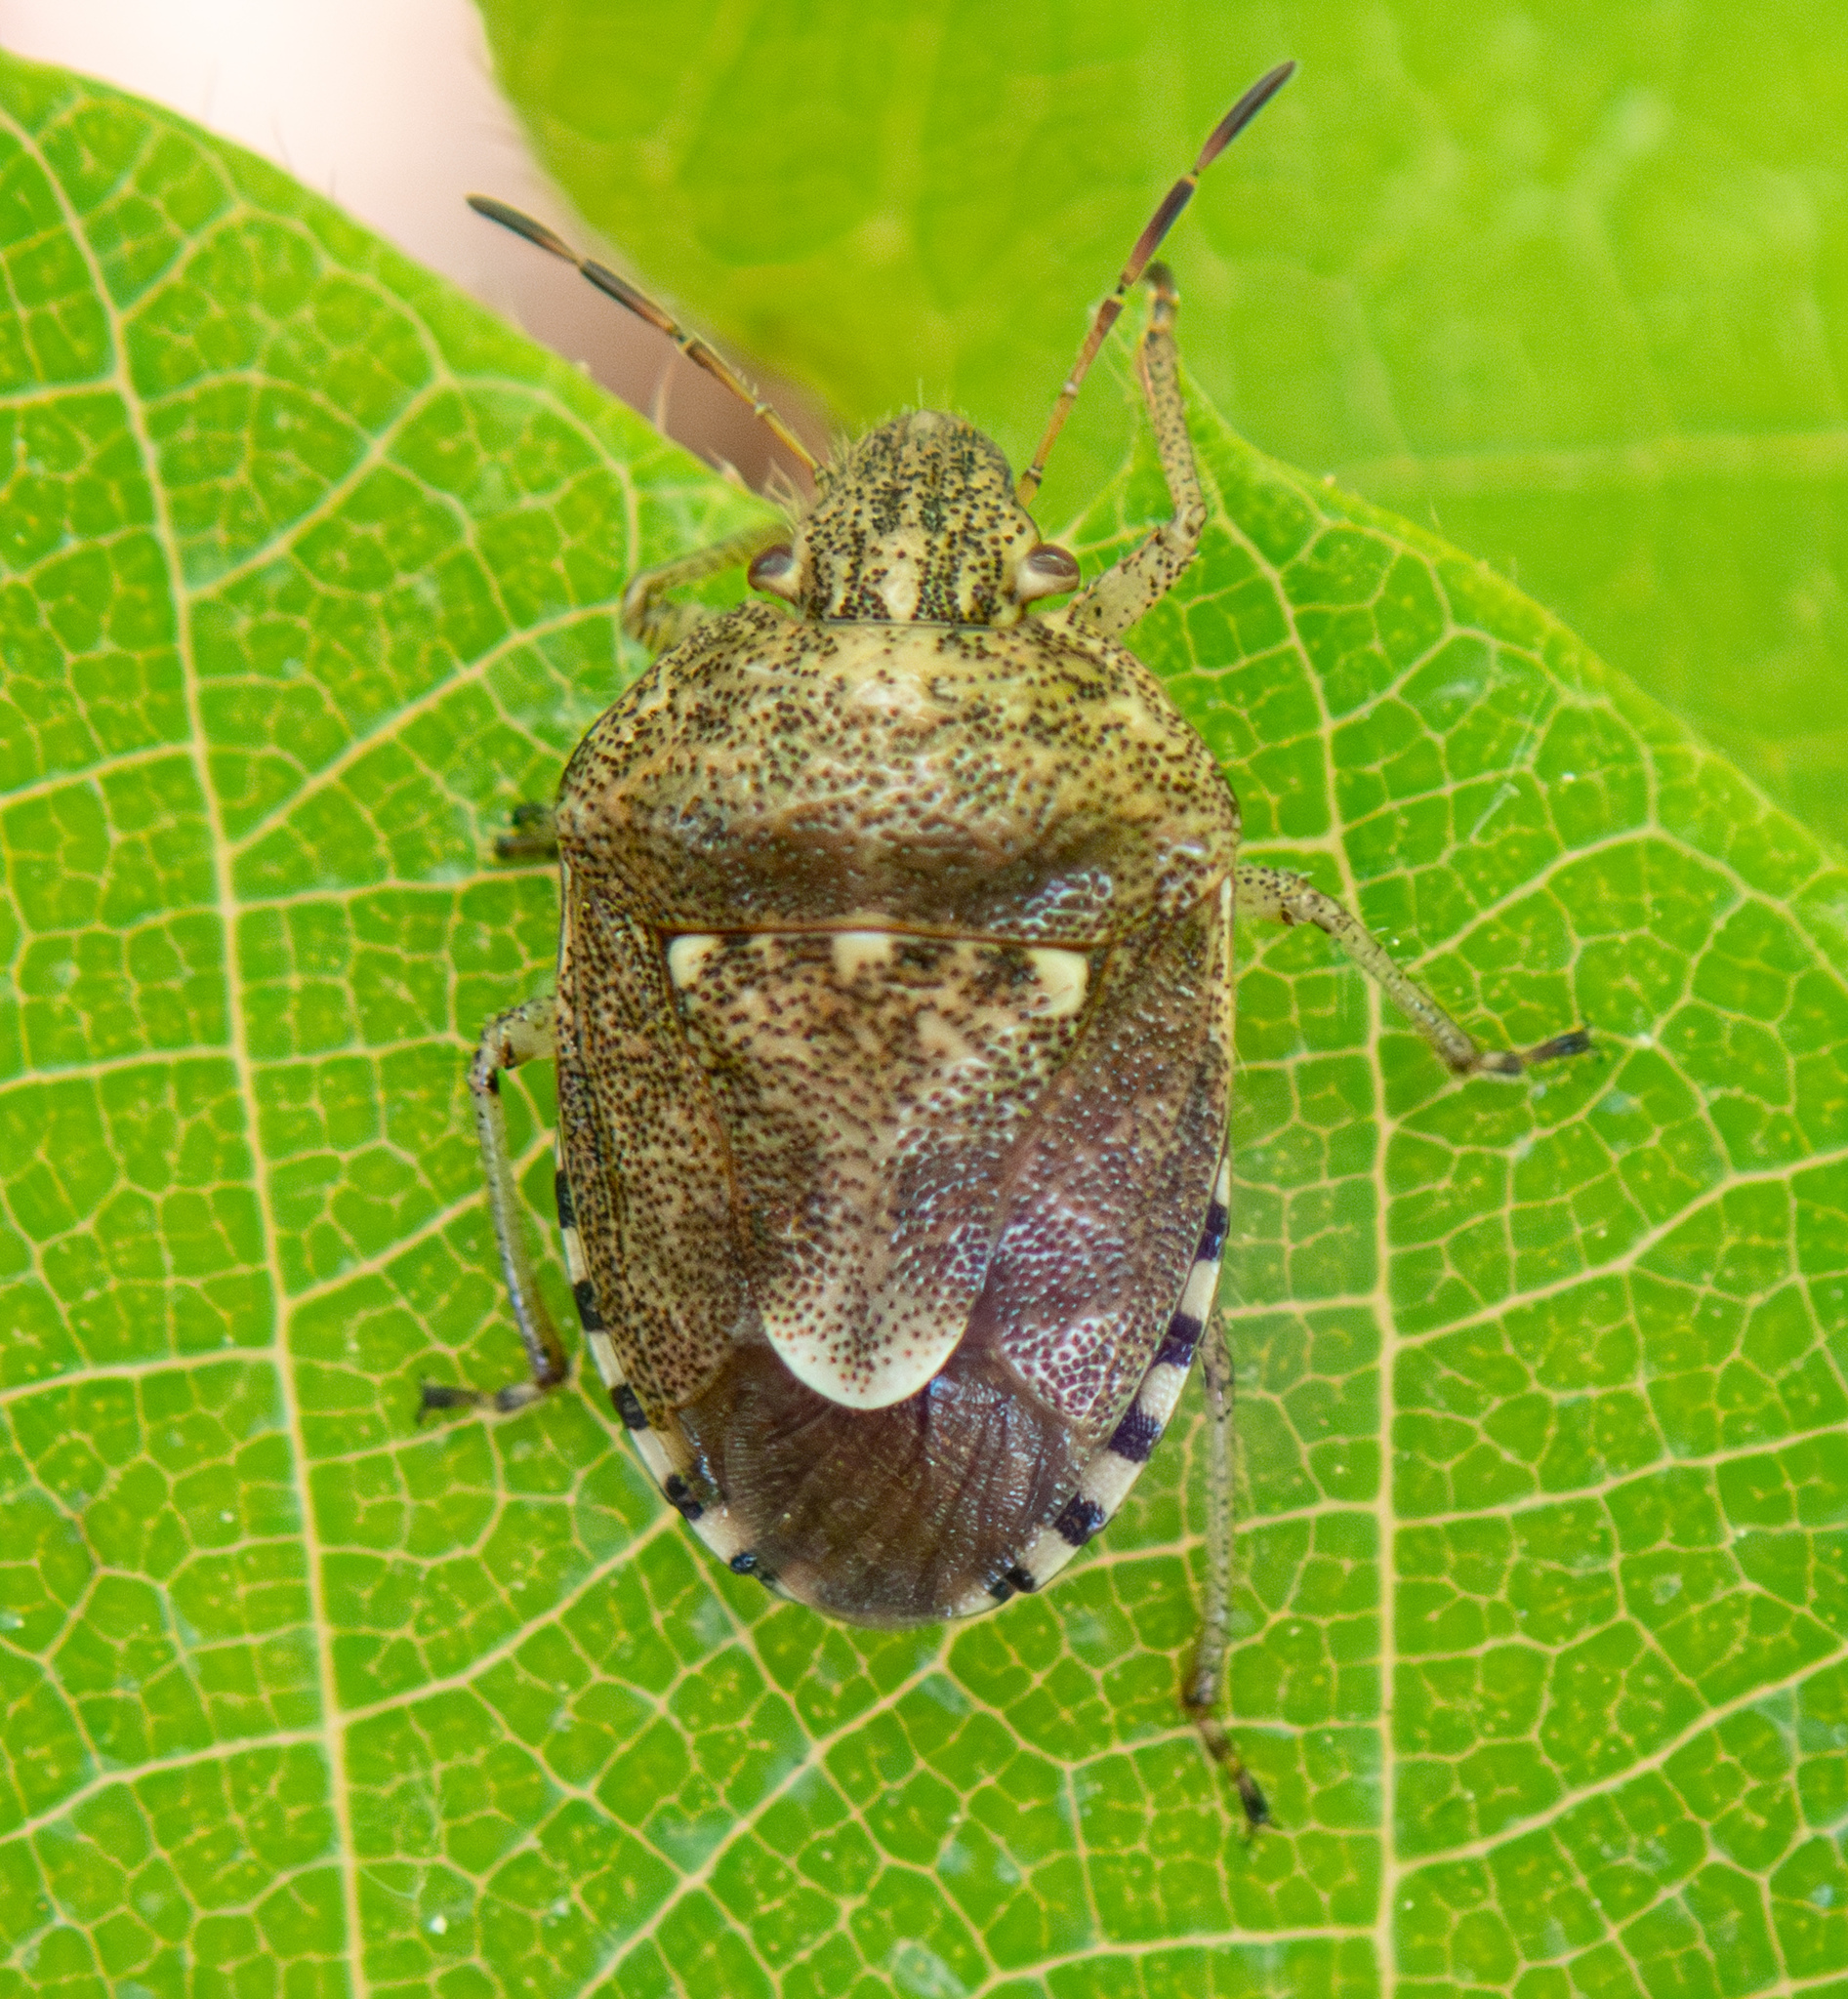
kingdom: Animalia
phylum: Arthropoda
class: Insecta
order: Hemiptera
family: Pentatomidae
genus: Staria
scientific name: Staria lunata
